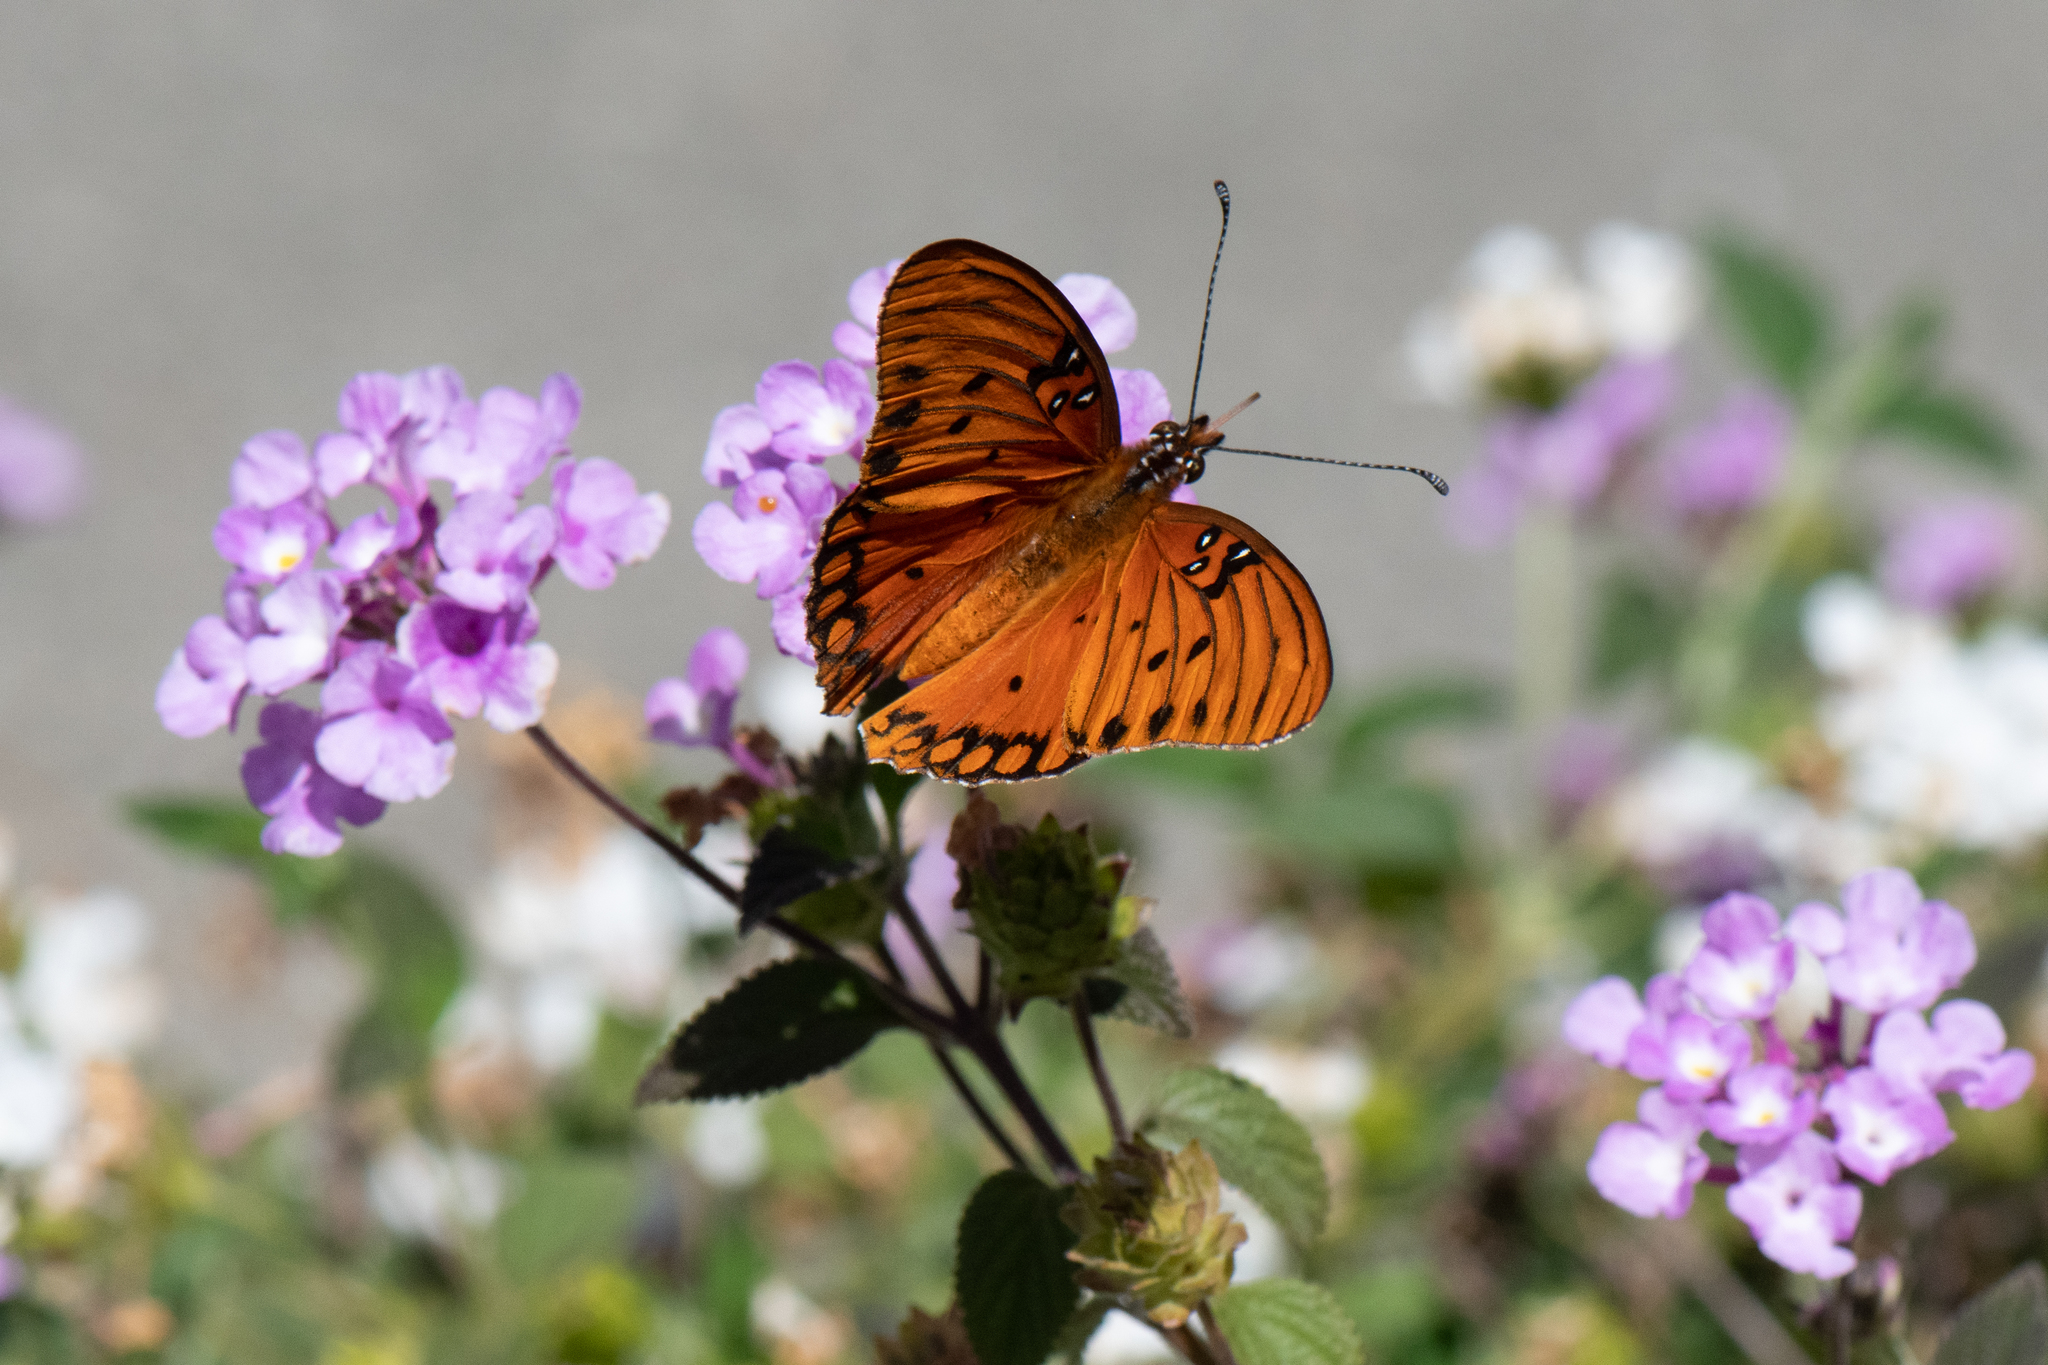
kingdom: Animalia
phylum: Arthropoda
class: Insecta
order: Lepidoptera
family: Nymphalidae
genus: Dione
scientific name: Dione vanillae
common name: Gulf fritillary
